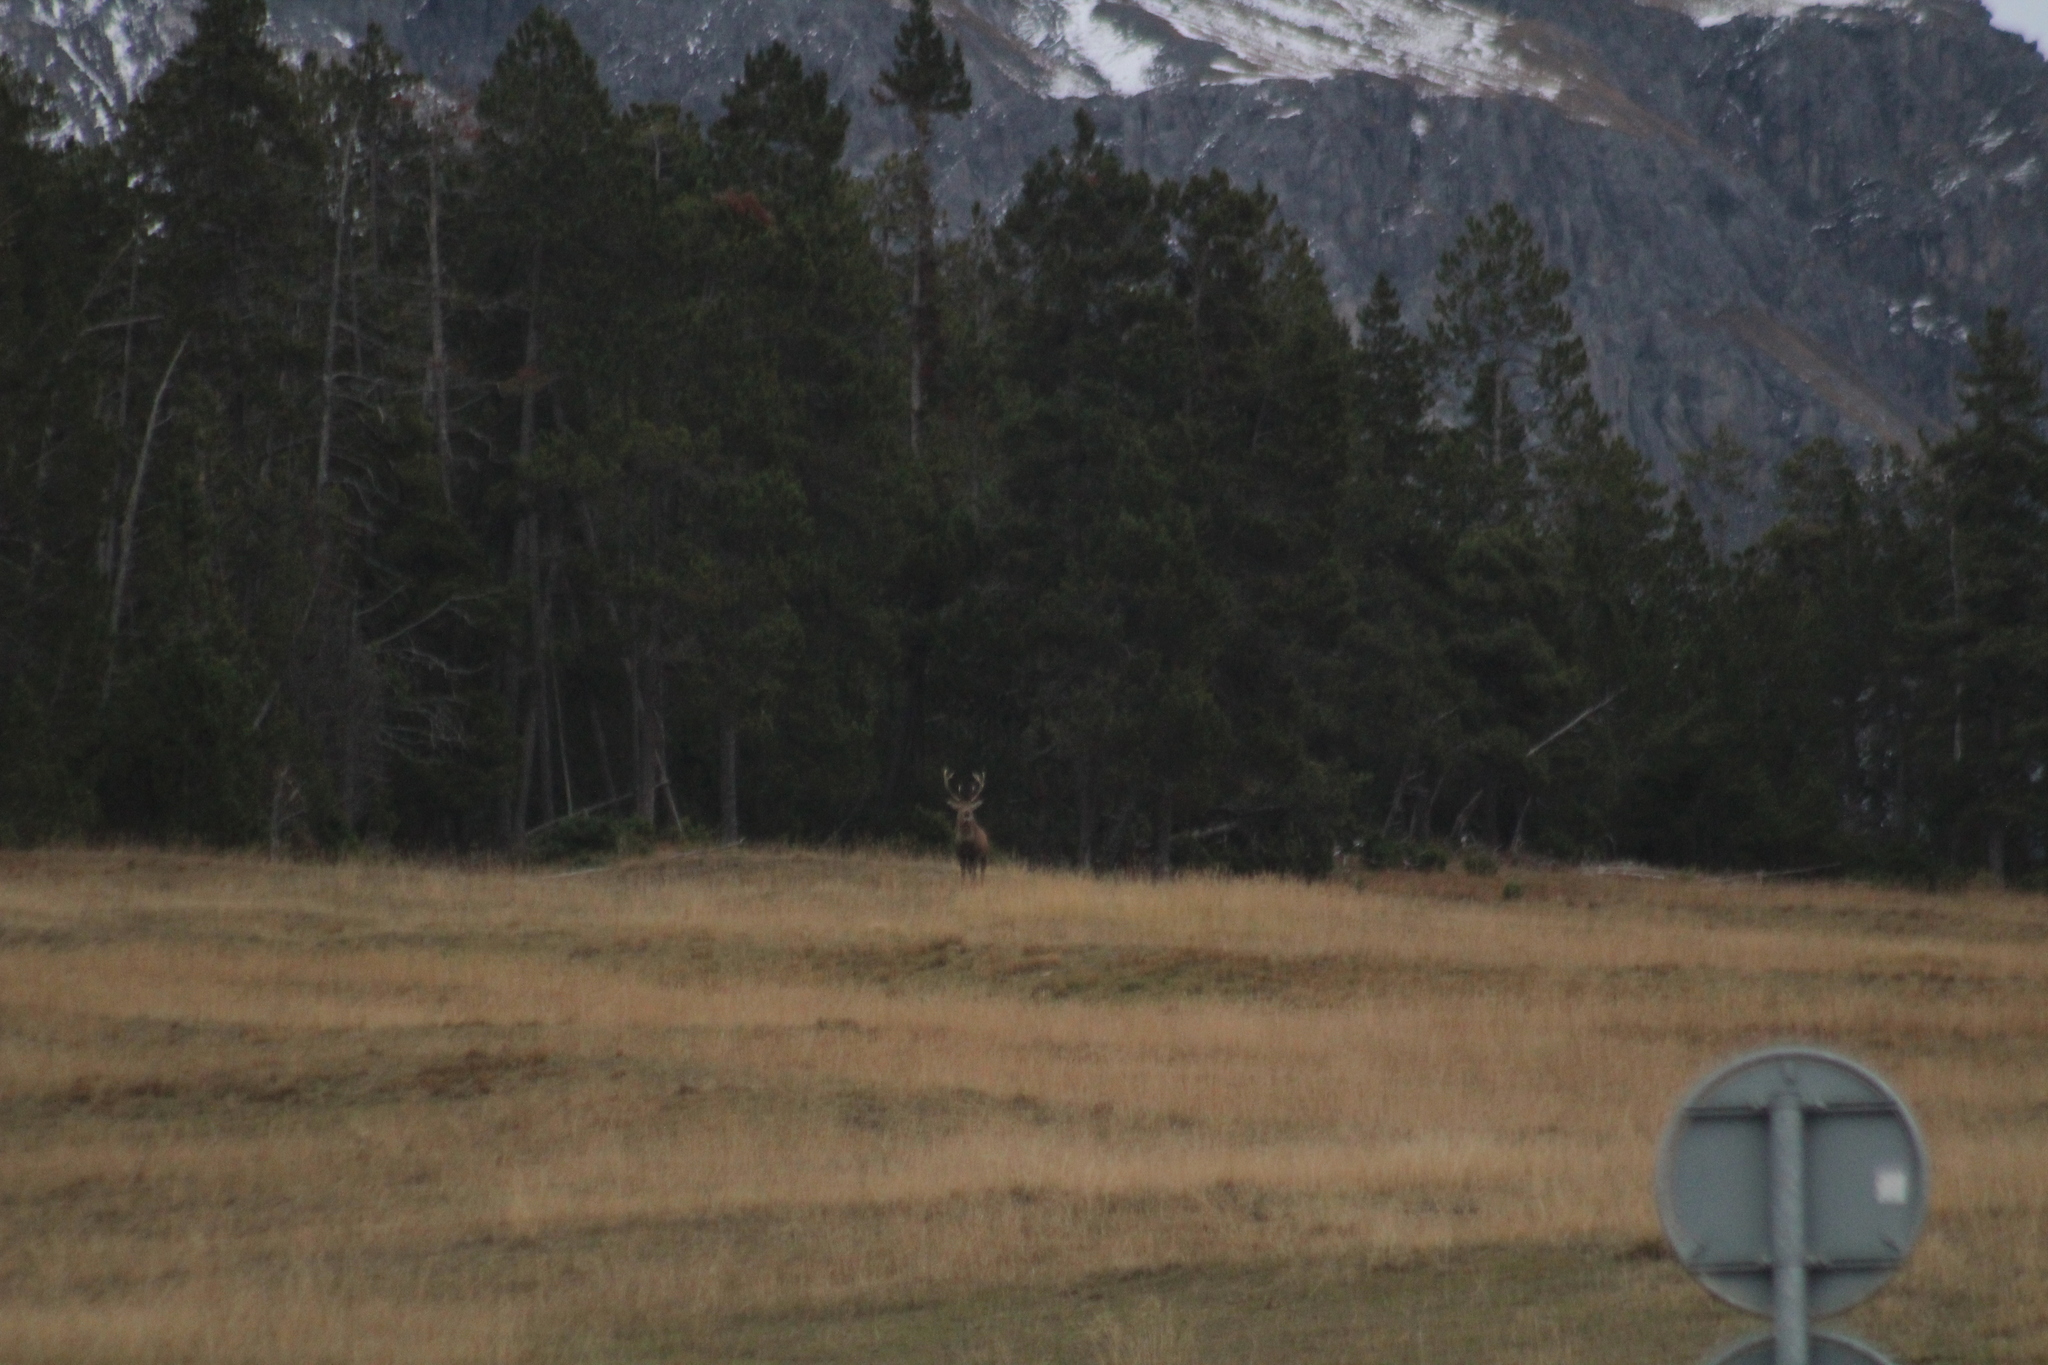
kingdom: Animalia
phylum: Chordata
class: Mammalia
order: Artiodactyla
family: Cervidae
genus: Cervus
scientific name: Cervus elaphus
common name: Red deer
